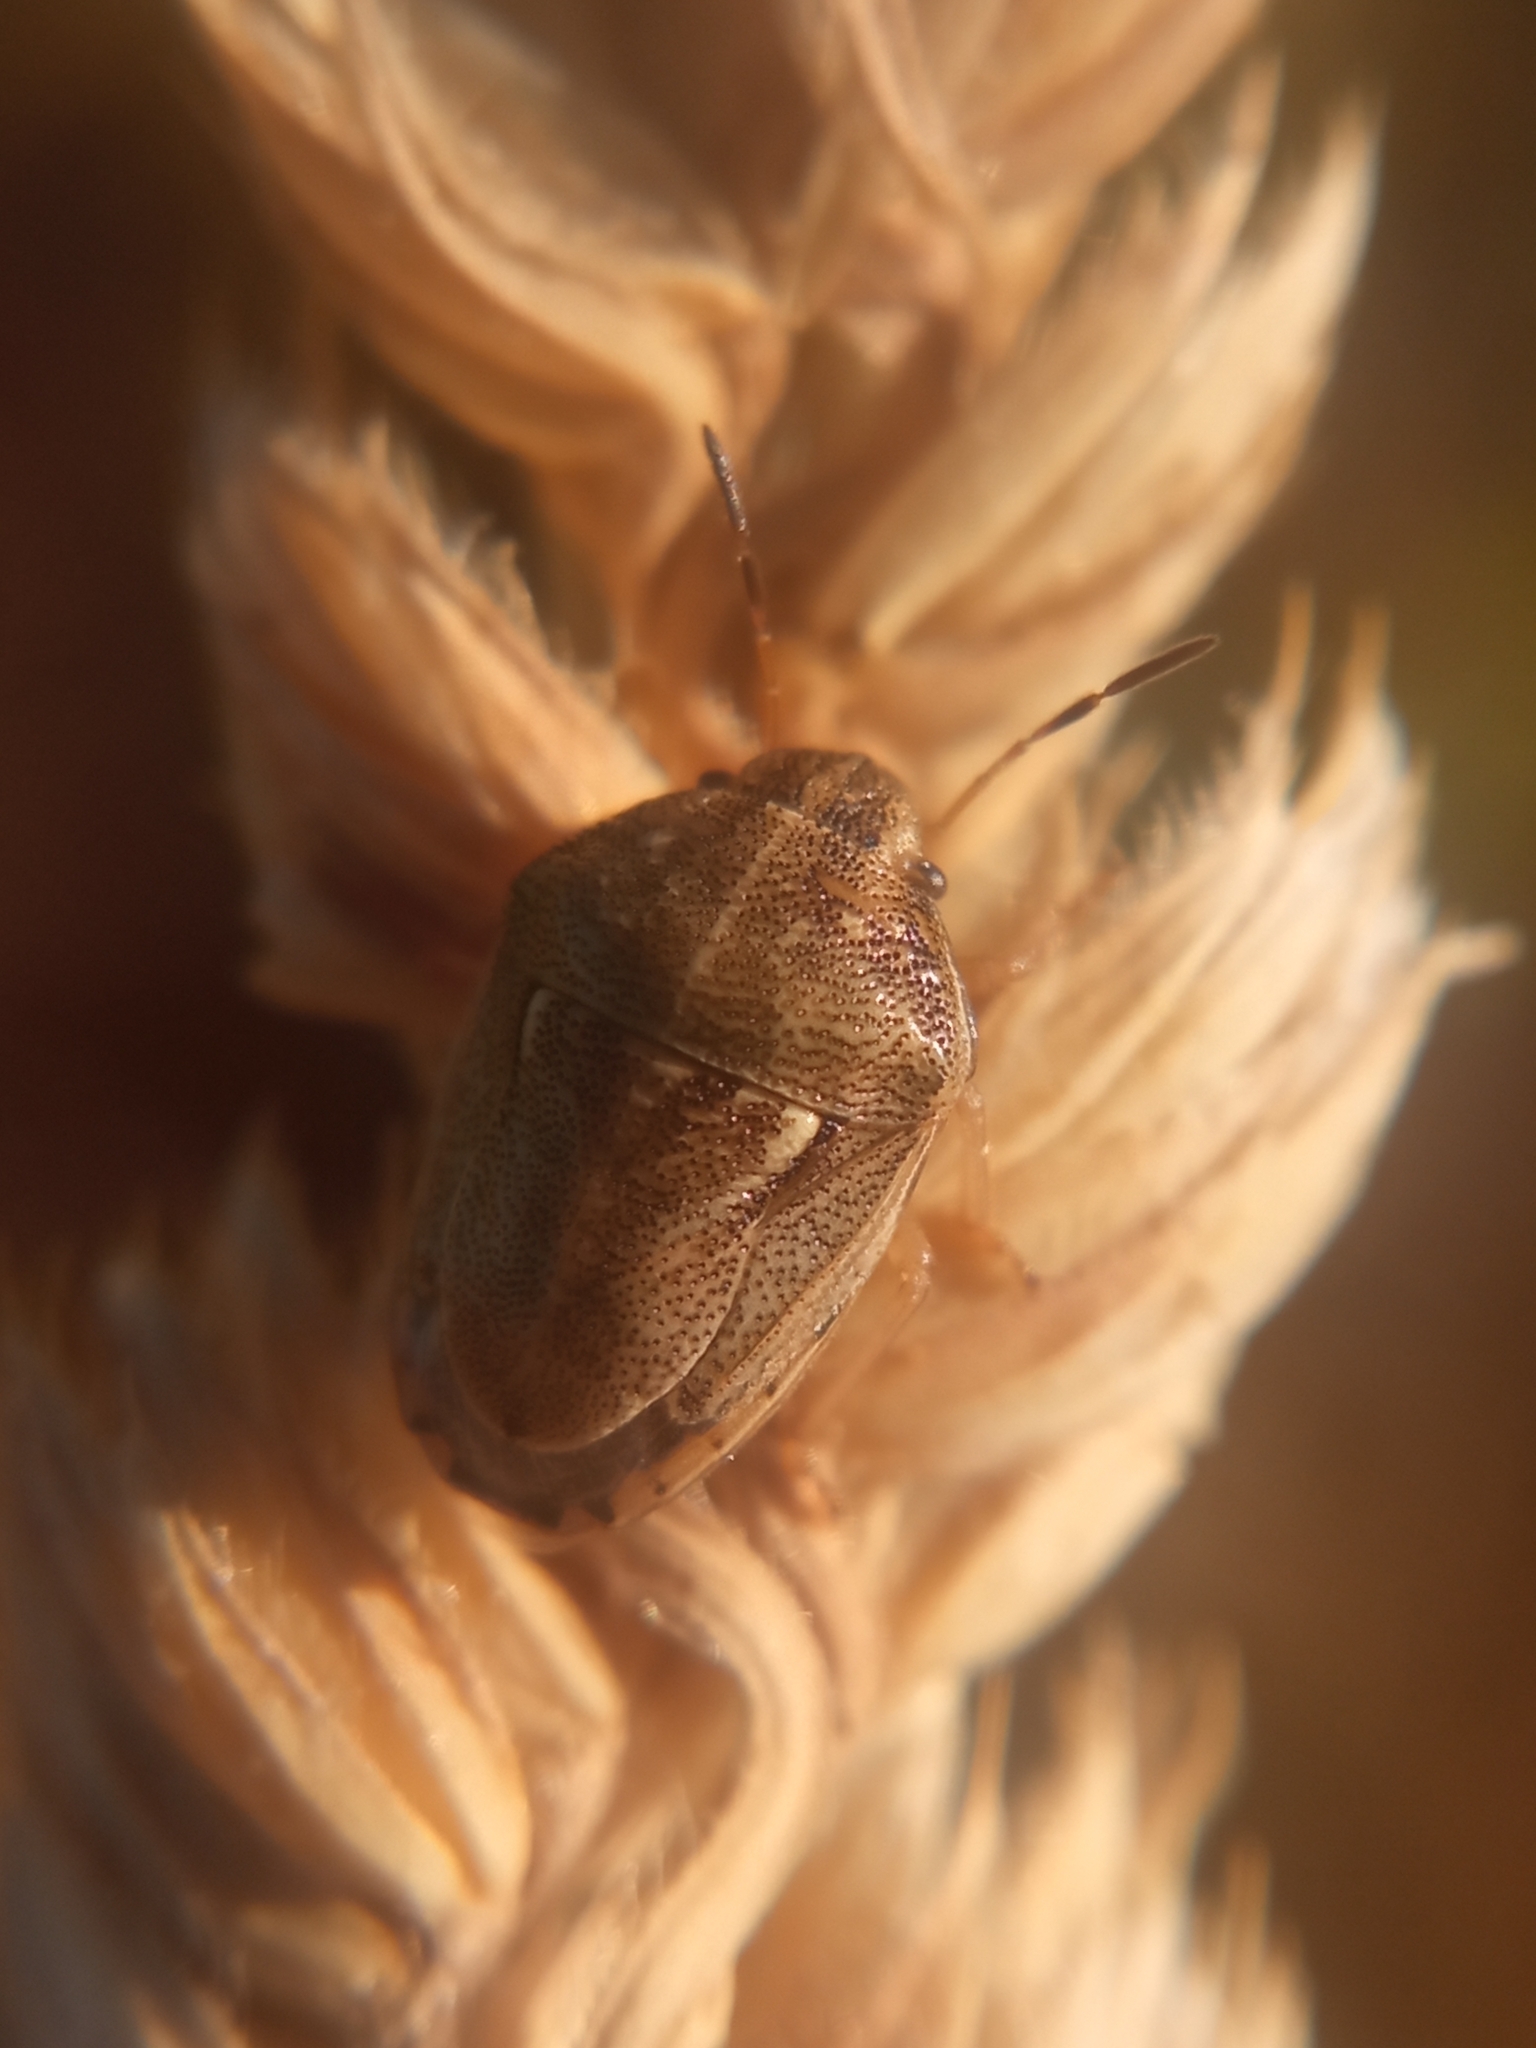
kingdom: Animalia
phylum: Arthropoda
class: Insecta
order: Hemiptera
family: Pentatomidae
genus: Neottiglossa
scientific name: Neottiglossa leporina
